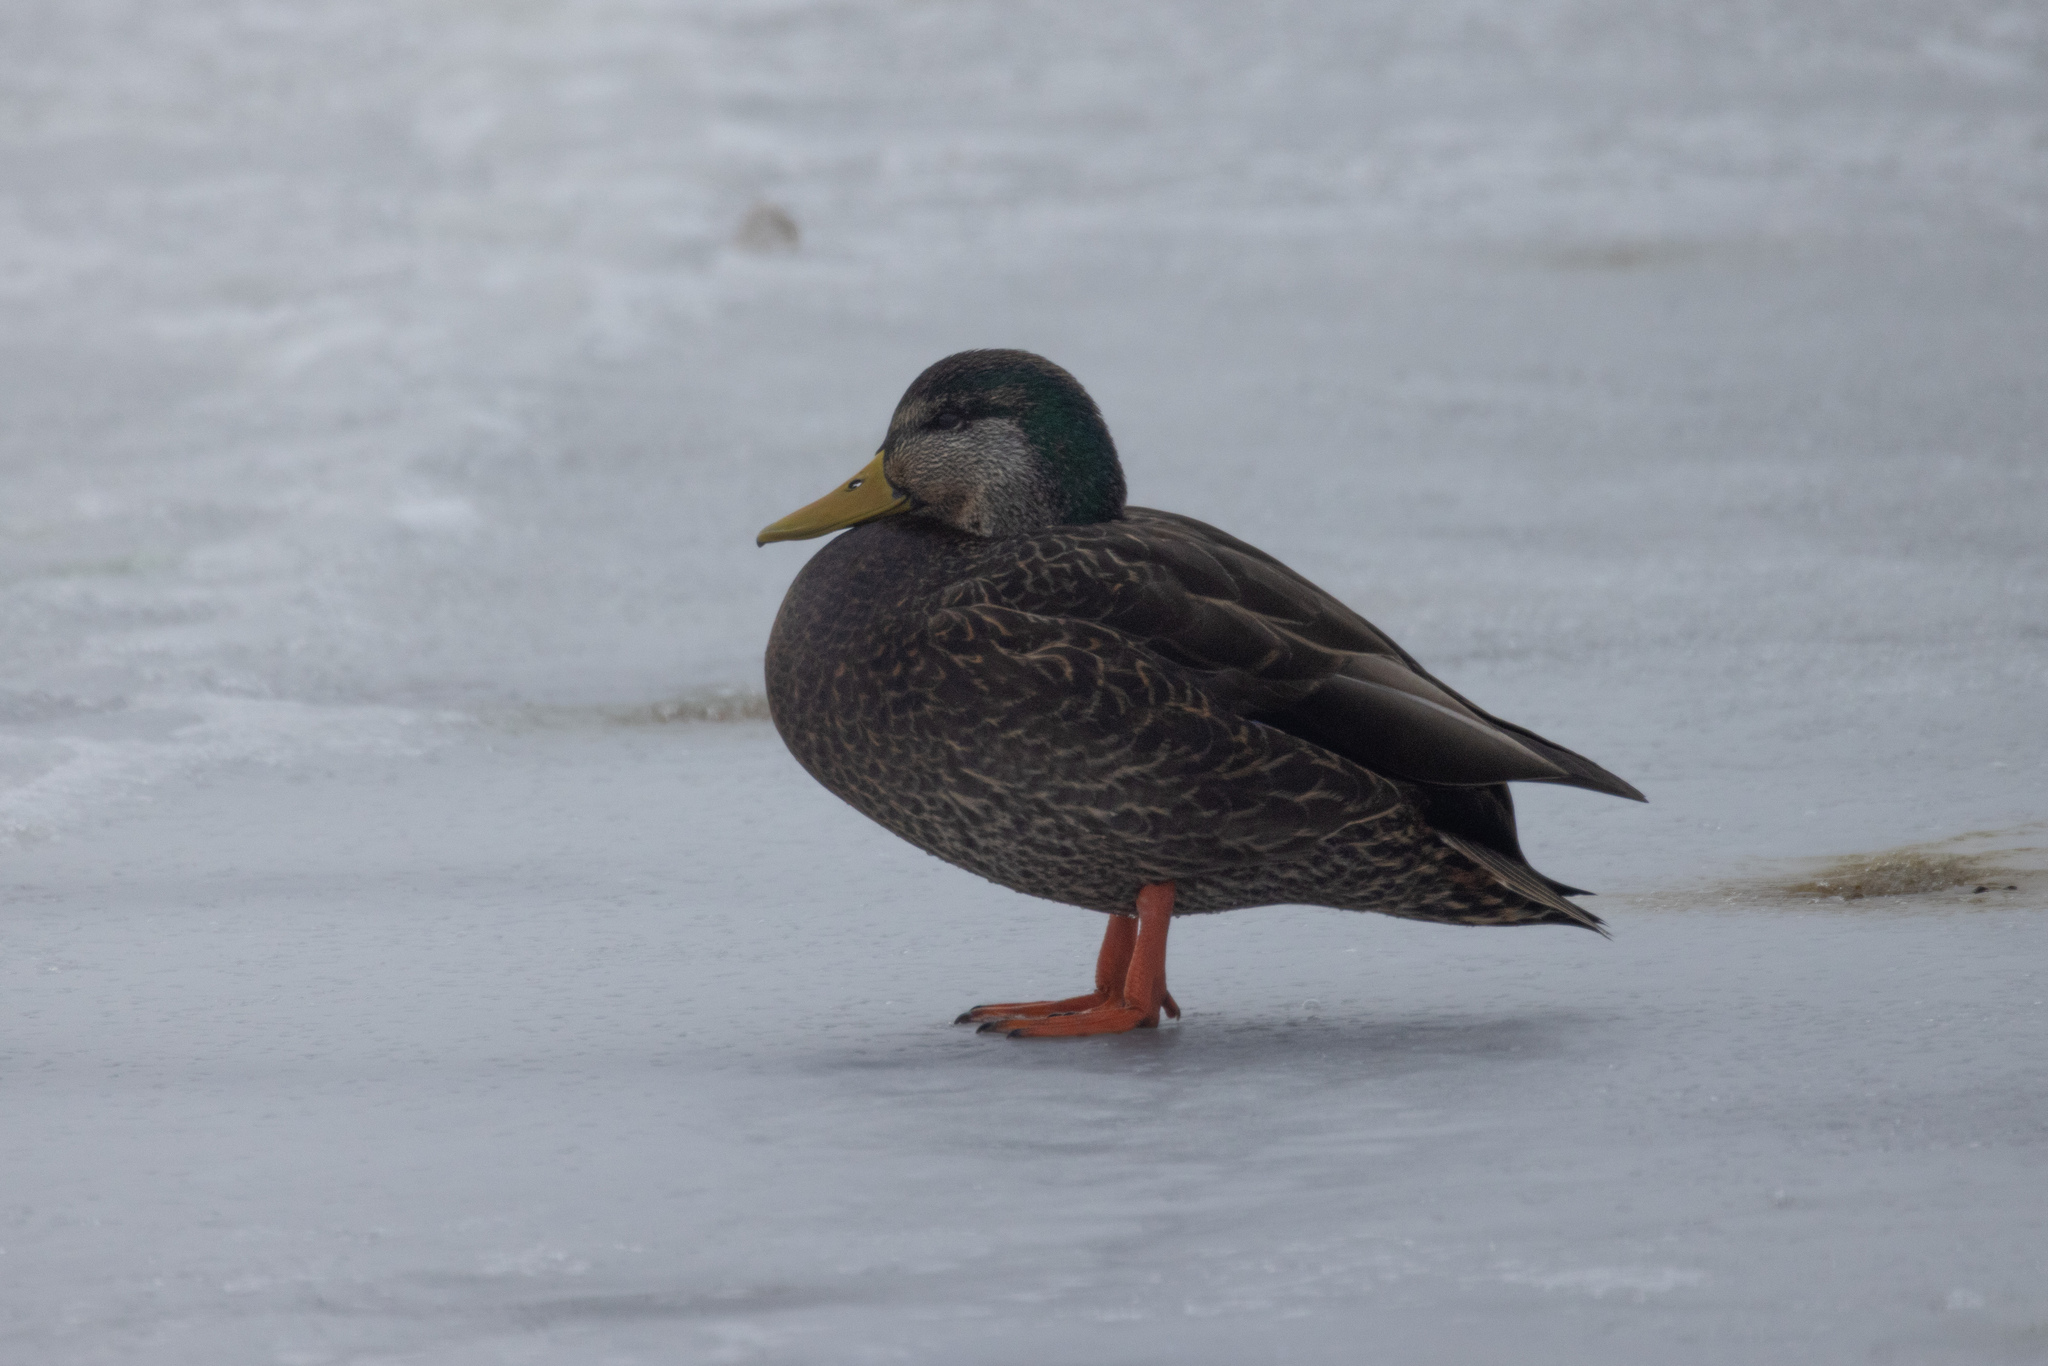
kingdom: Animalia
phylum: Chordata
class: Aves
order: Anseriformes
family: Anatidae
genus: Anas
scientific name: Anas
